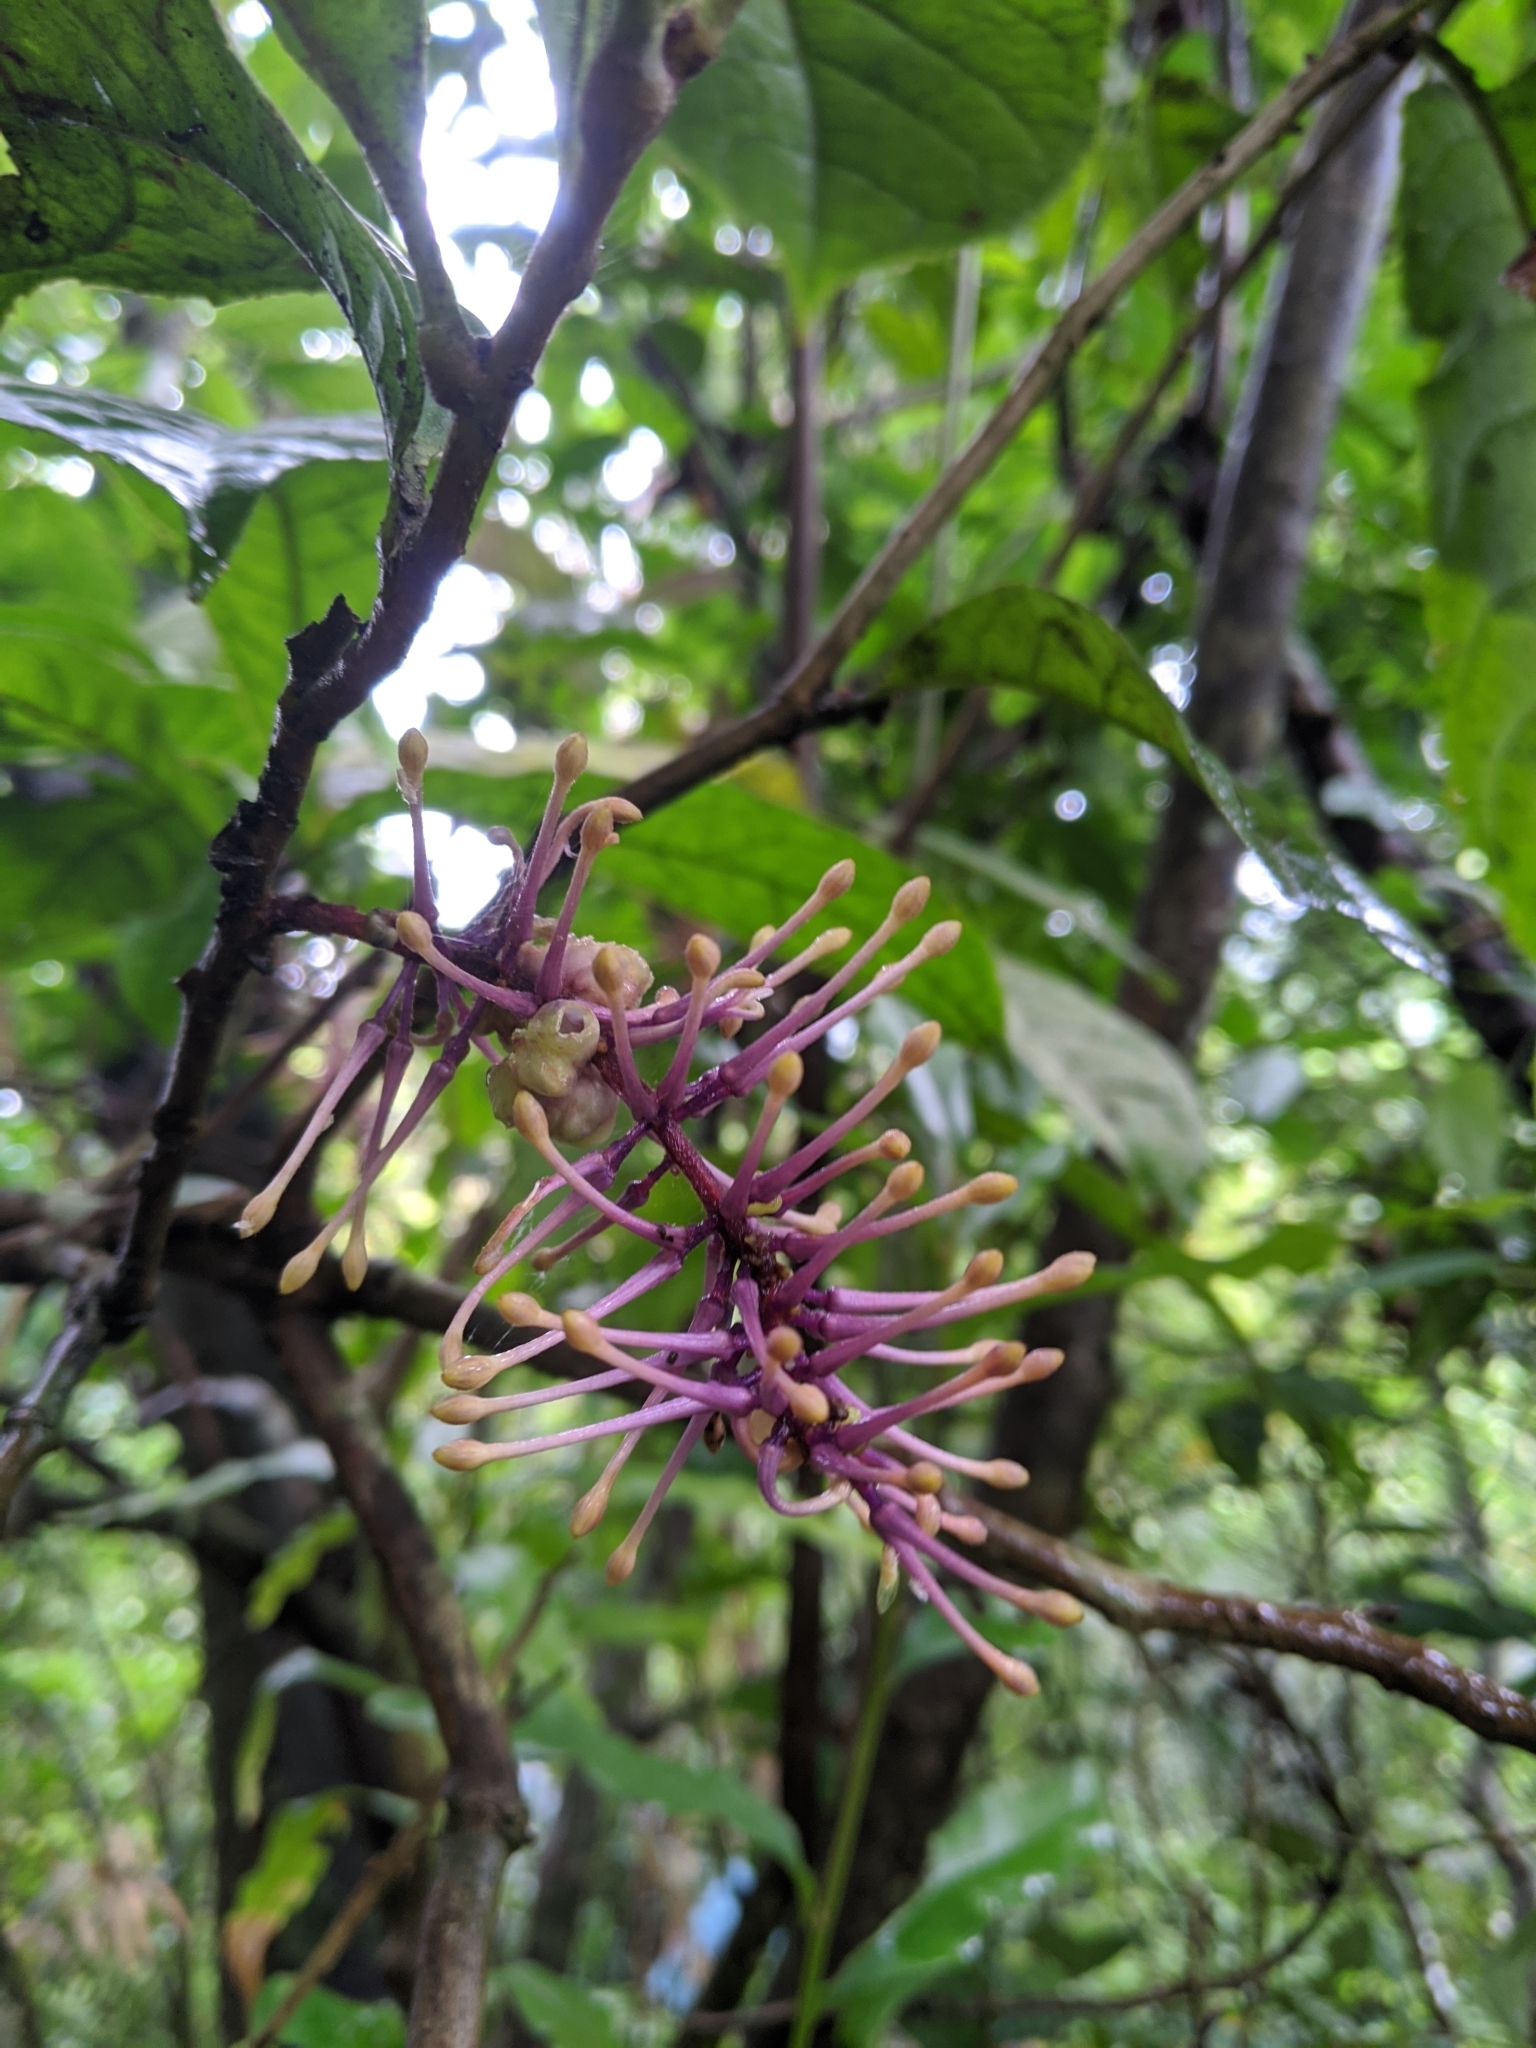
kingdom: Plantae
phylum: Tracheophyta
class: Magnoliopsida
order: Proteales
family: Proteaceae
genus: Helicia
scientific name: Helicia formosana
